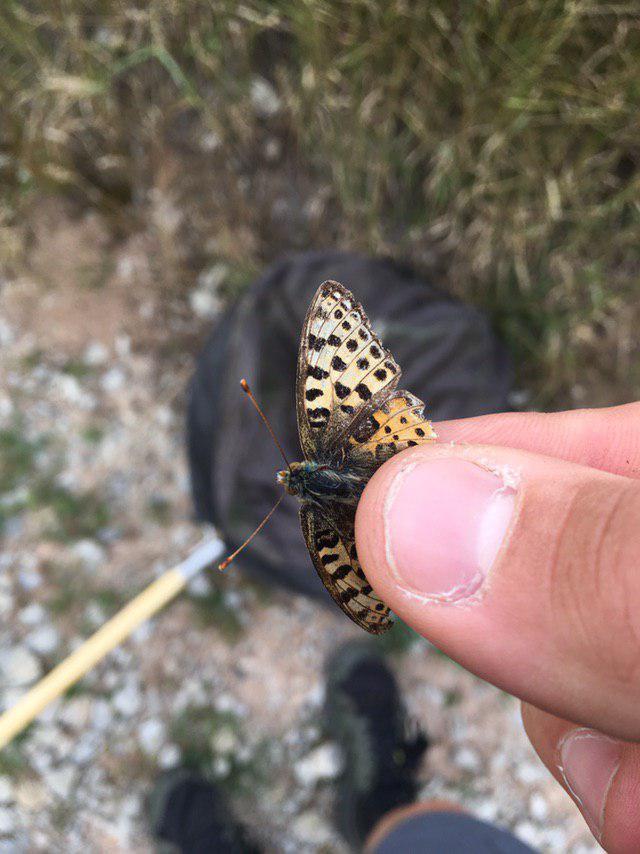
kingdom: Animalia
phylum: Arthropoda
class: Insecta
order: Lepidoptera
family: Nymphalidae
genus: Issoria
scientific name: Issoria lathonia
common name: Queen of spain fritillary
